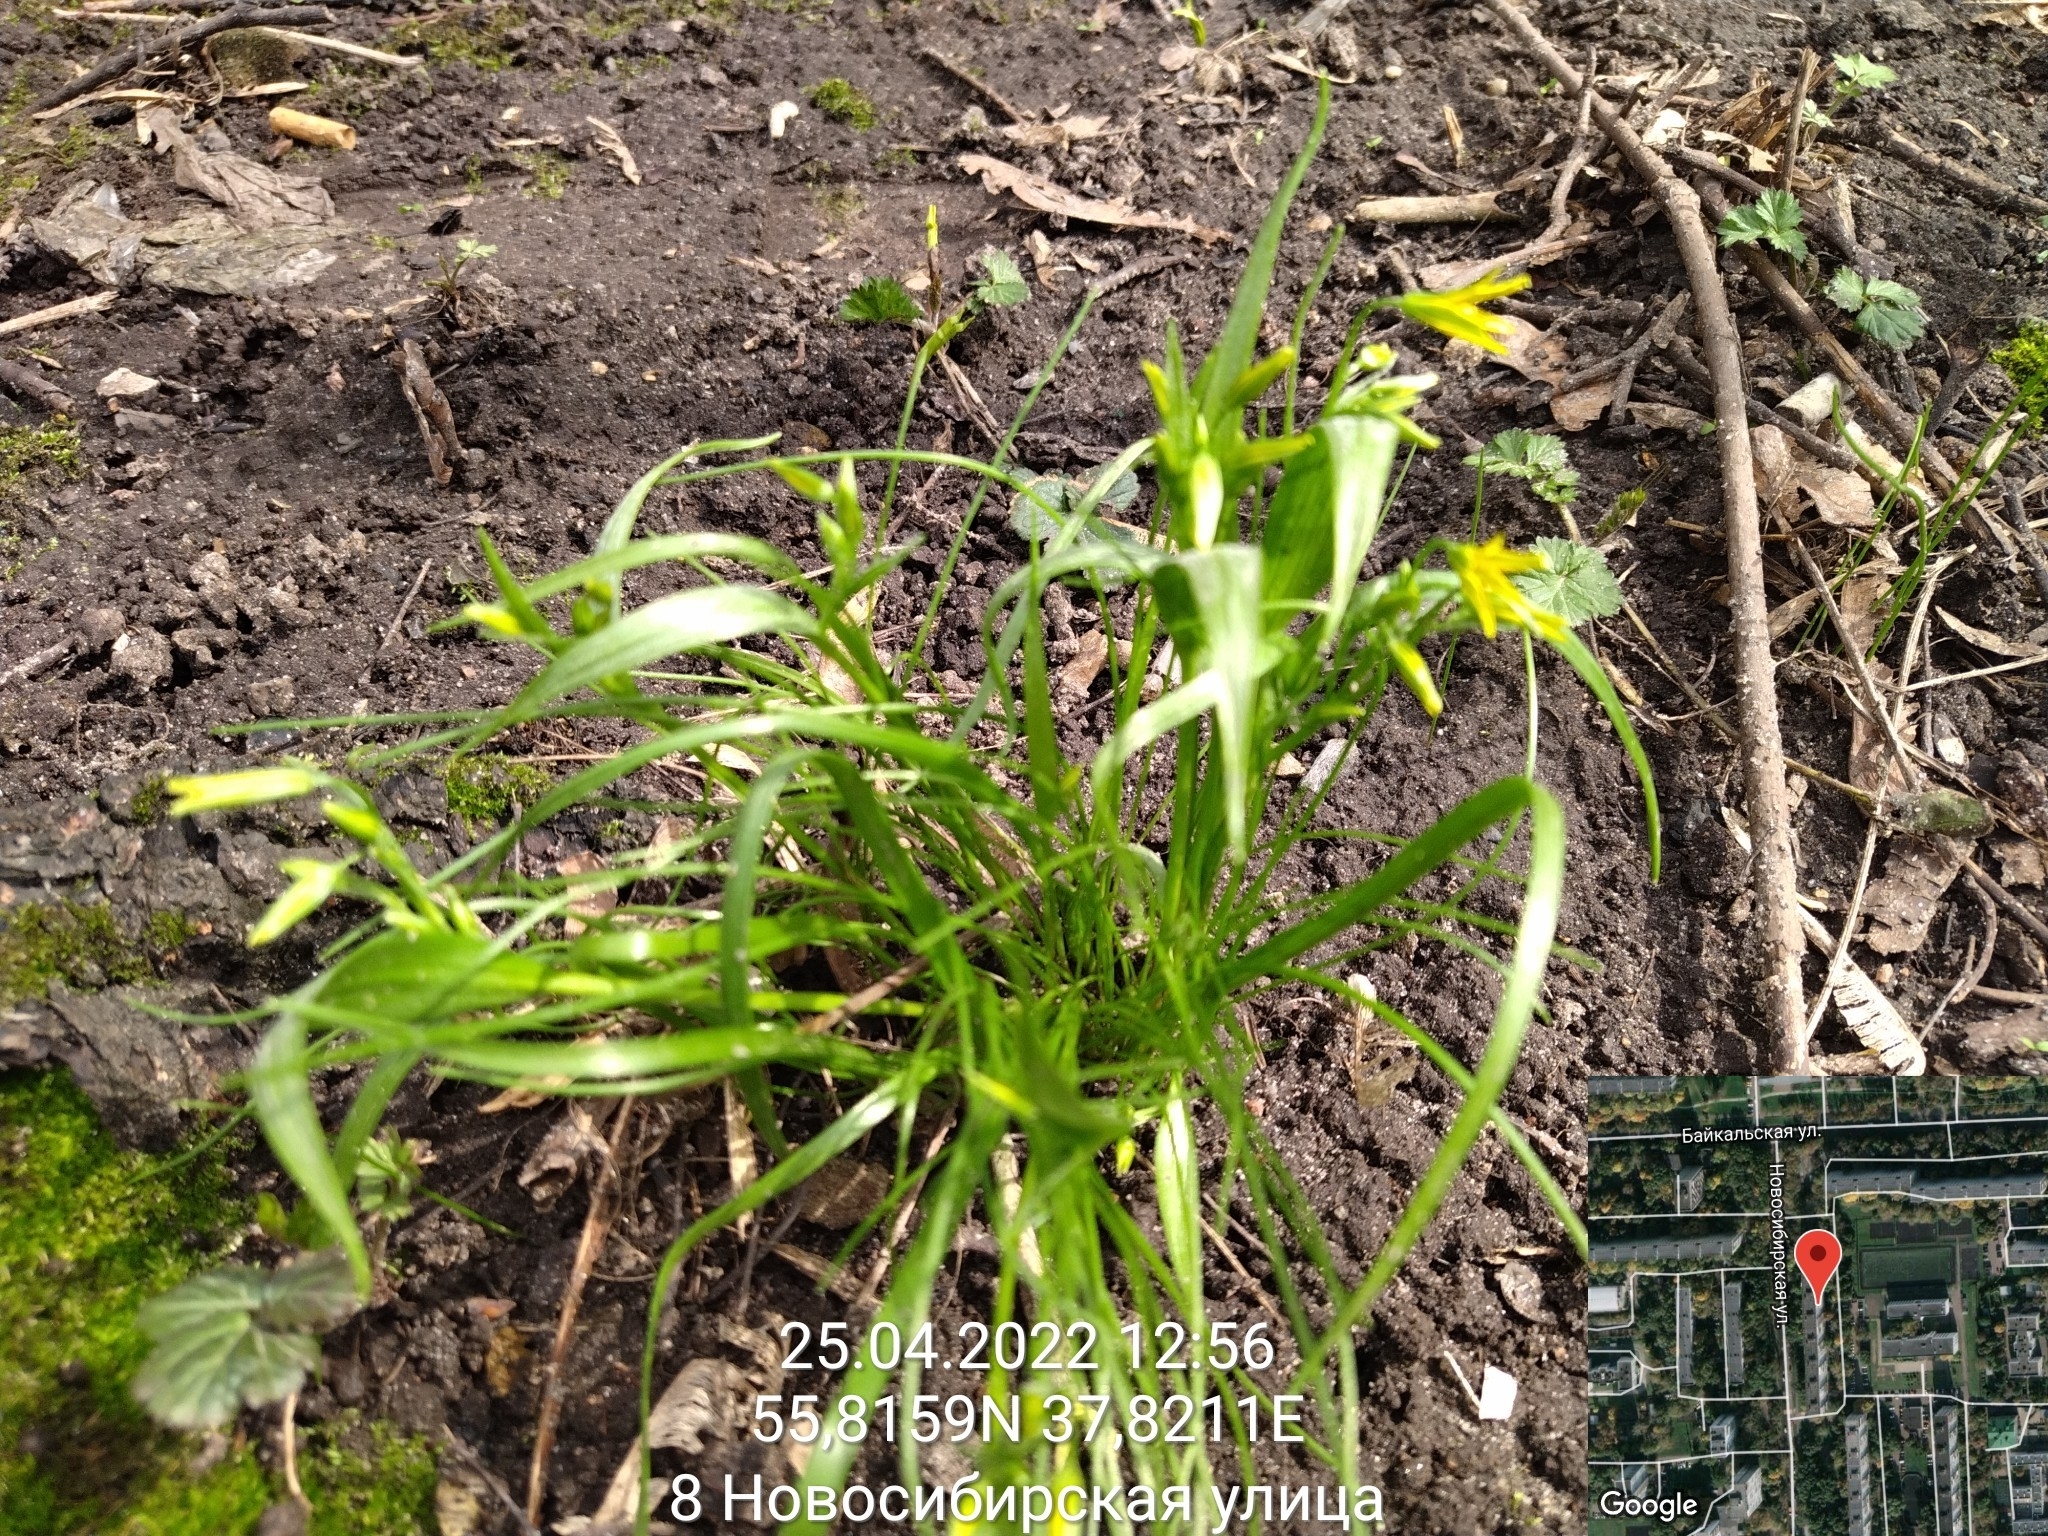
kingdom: Plantae
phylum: Tracheophyta
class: Liliopsida
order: Liliales
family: Liliaceae
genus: Gagea
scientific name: Gagea minima
